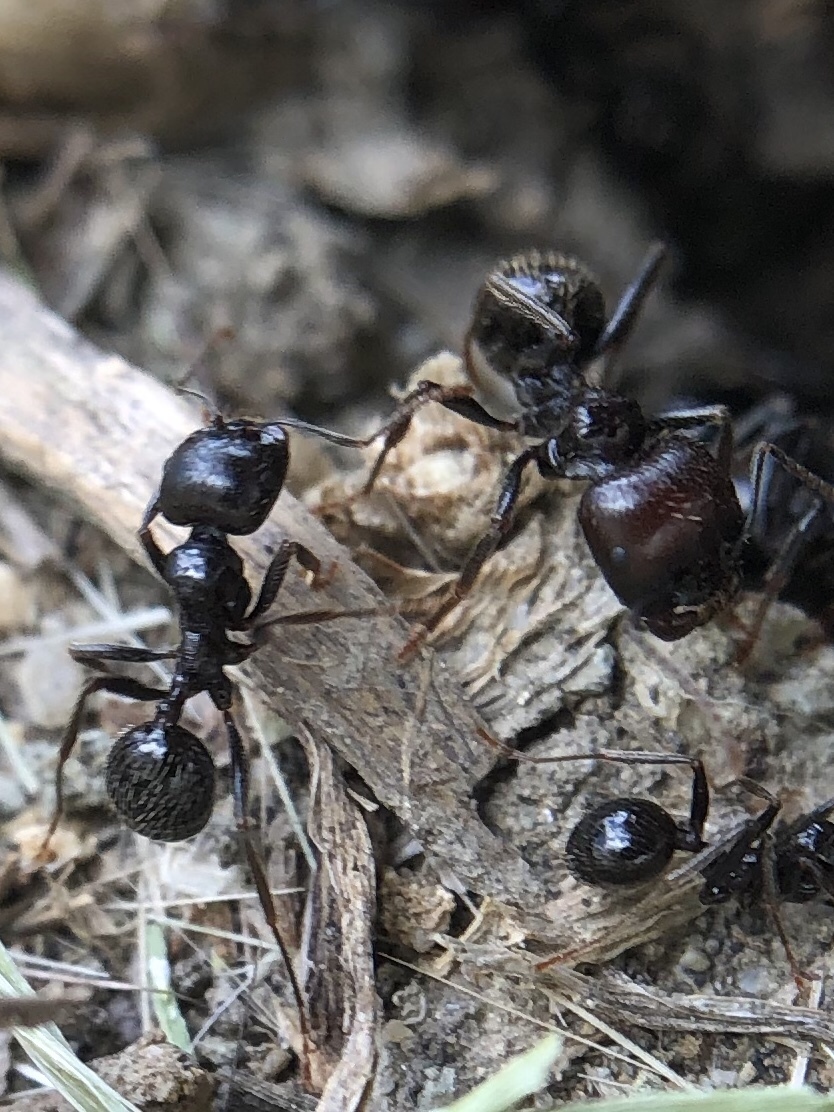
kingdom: Animalia
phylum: Arthropoda
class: Insecta
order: Hymenoptera
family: Formicidae
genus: Messor
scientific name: Messor barbarus
